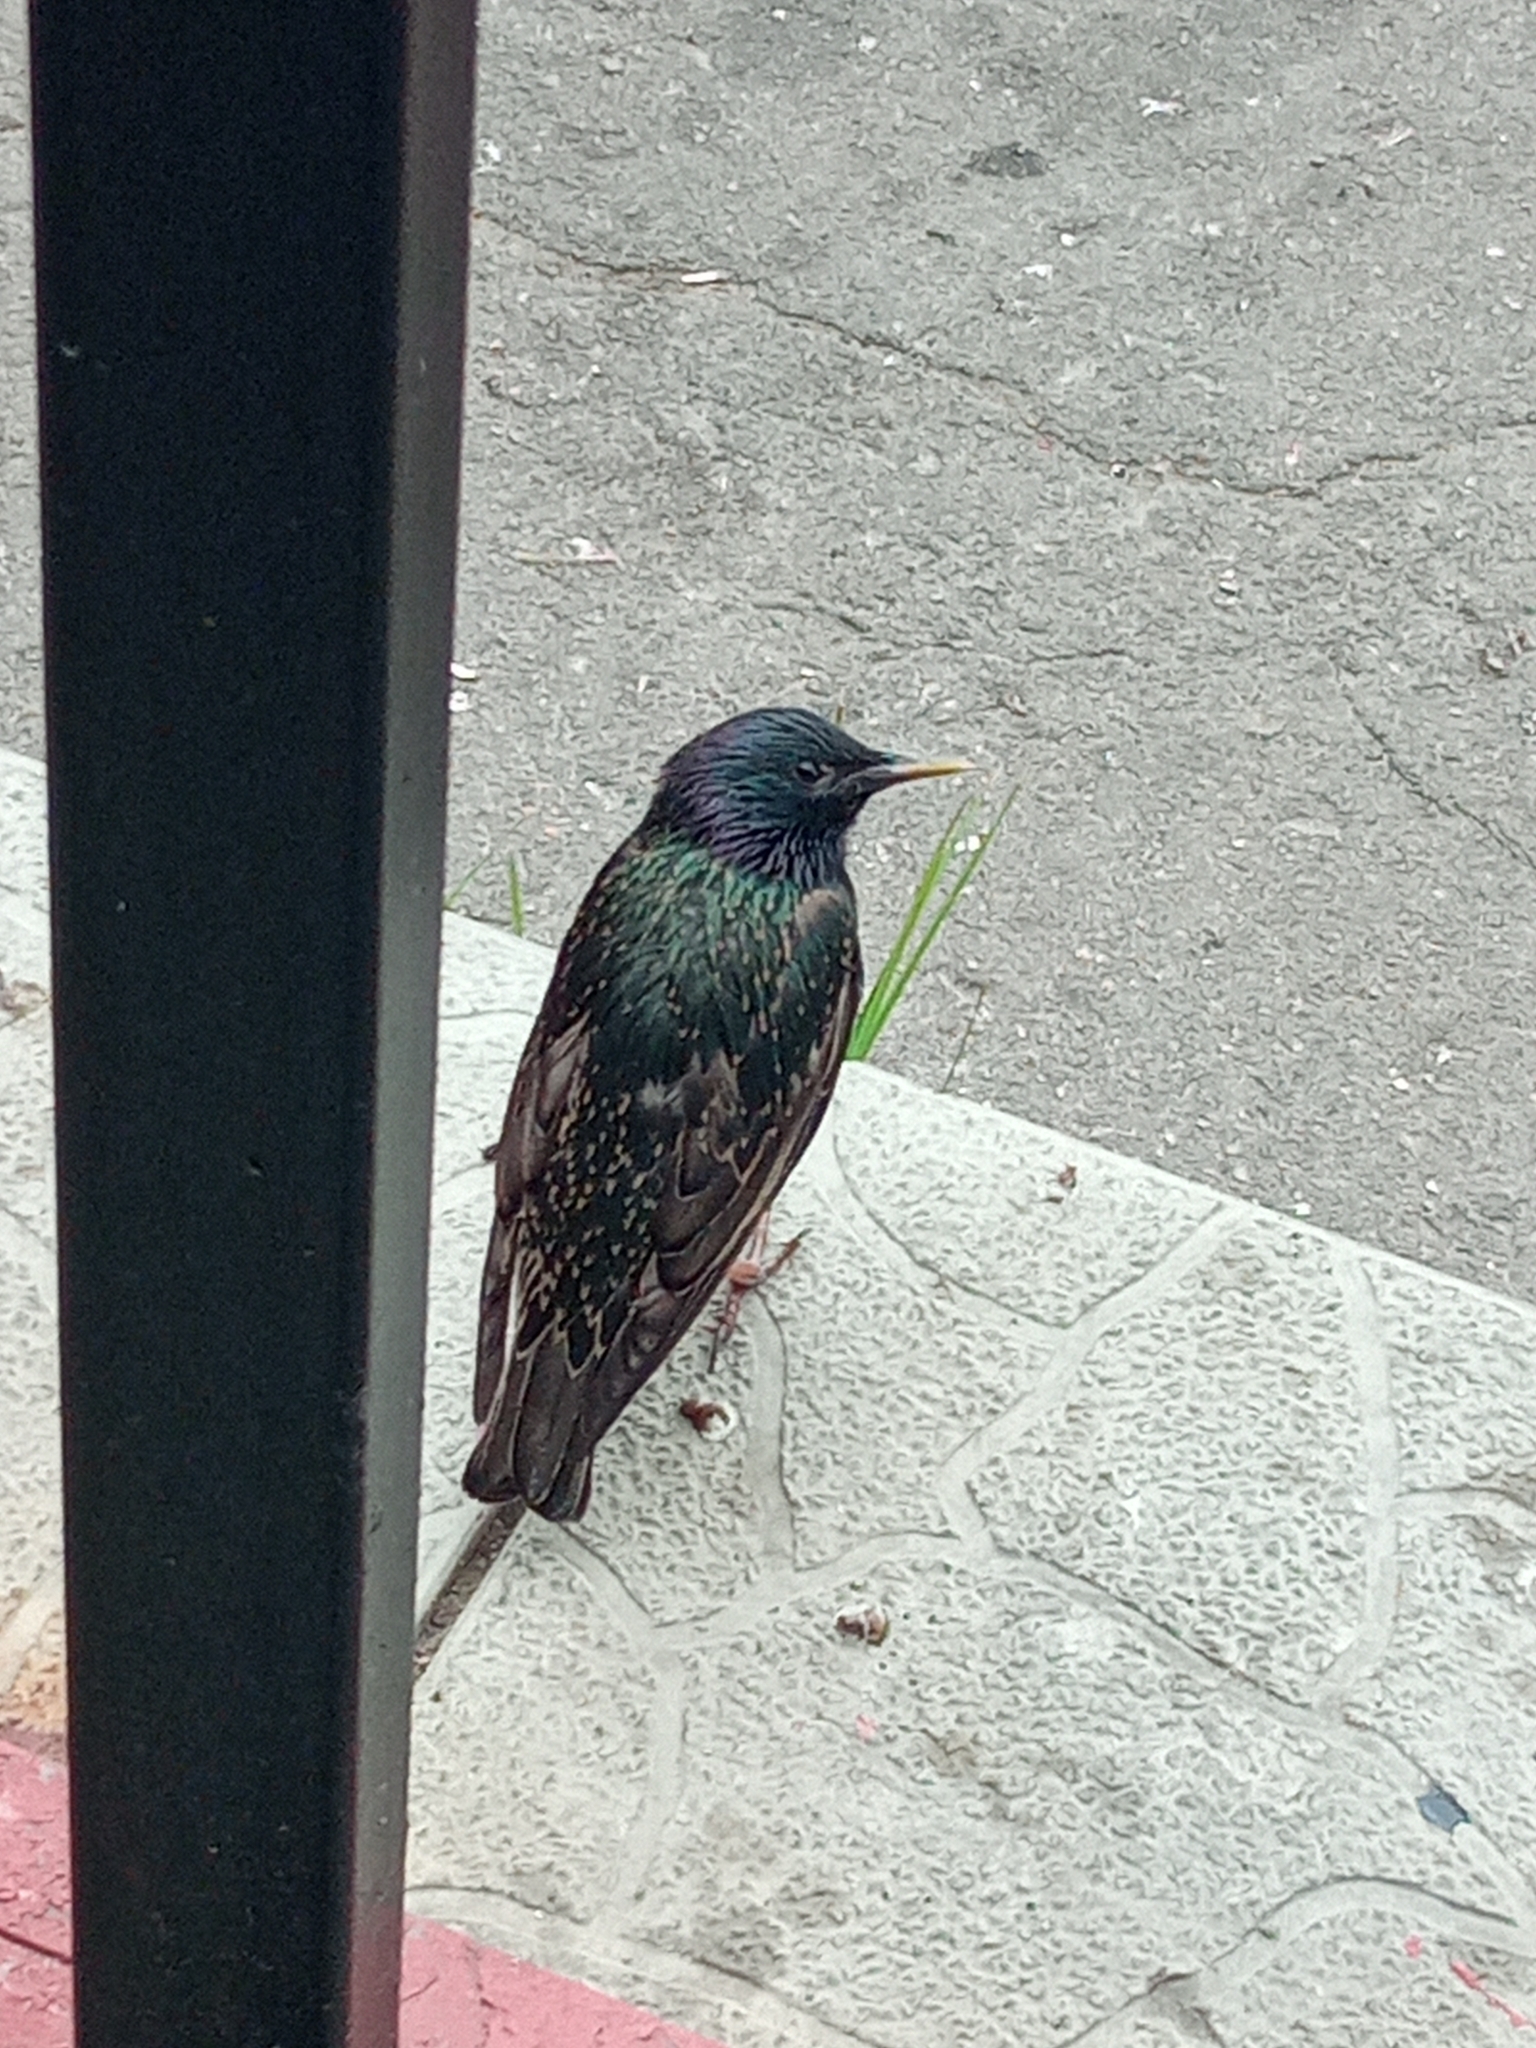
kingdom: Animalia
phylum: Chordata
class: Aves
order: Passeriformes
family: Sturnidae
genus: Sturnus
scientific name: Sturnus vulgaris
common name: Common starling
